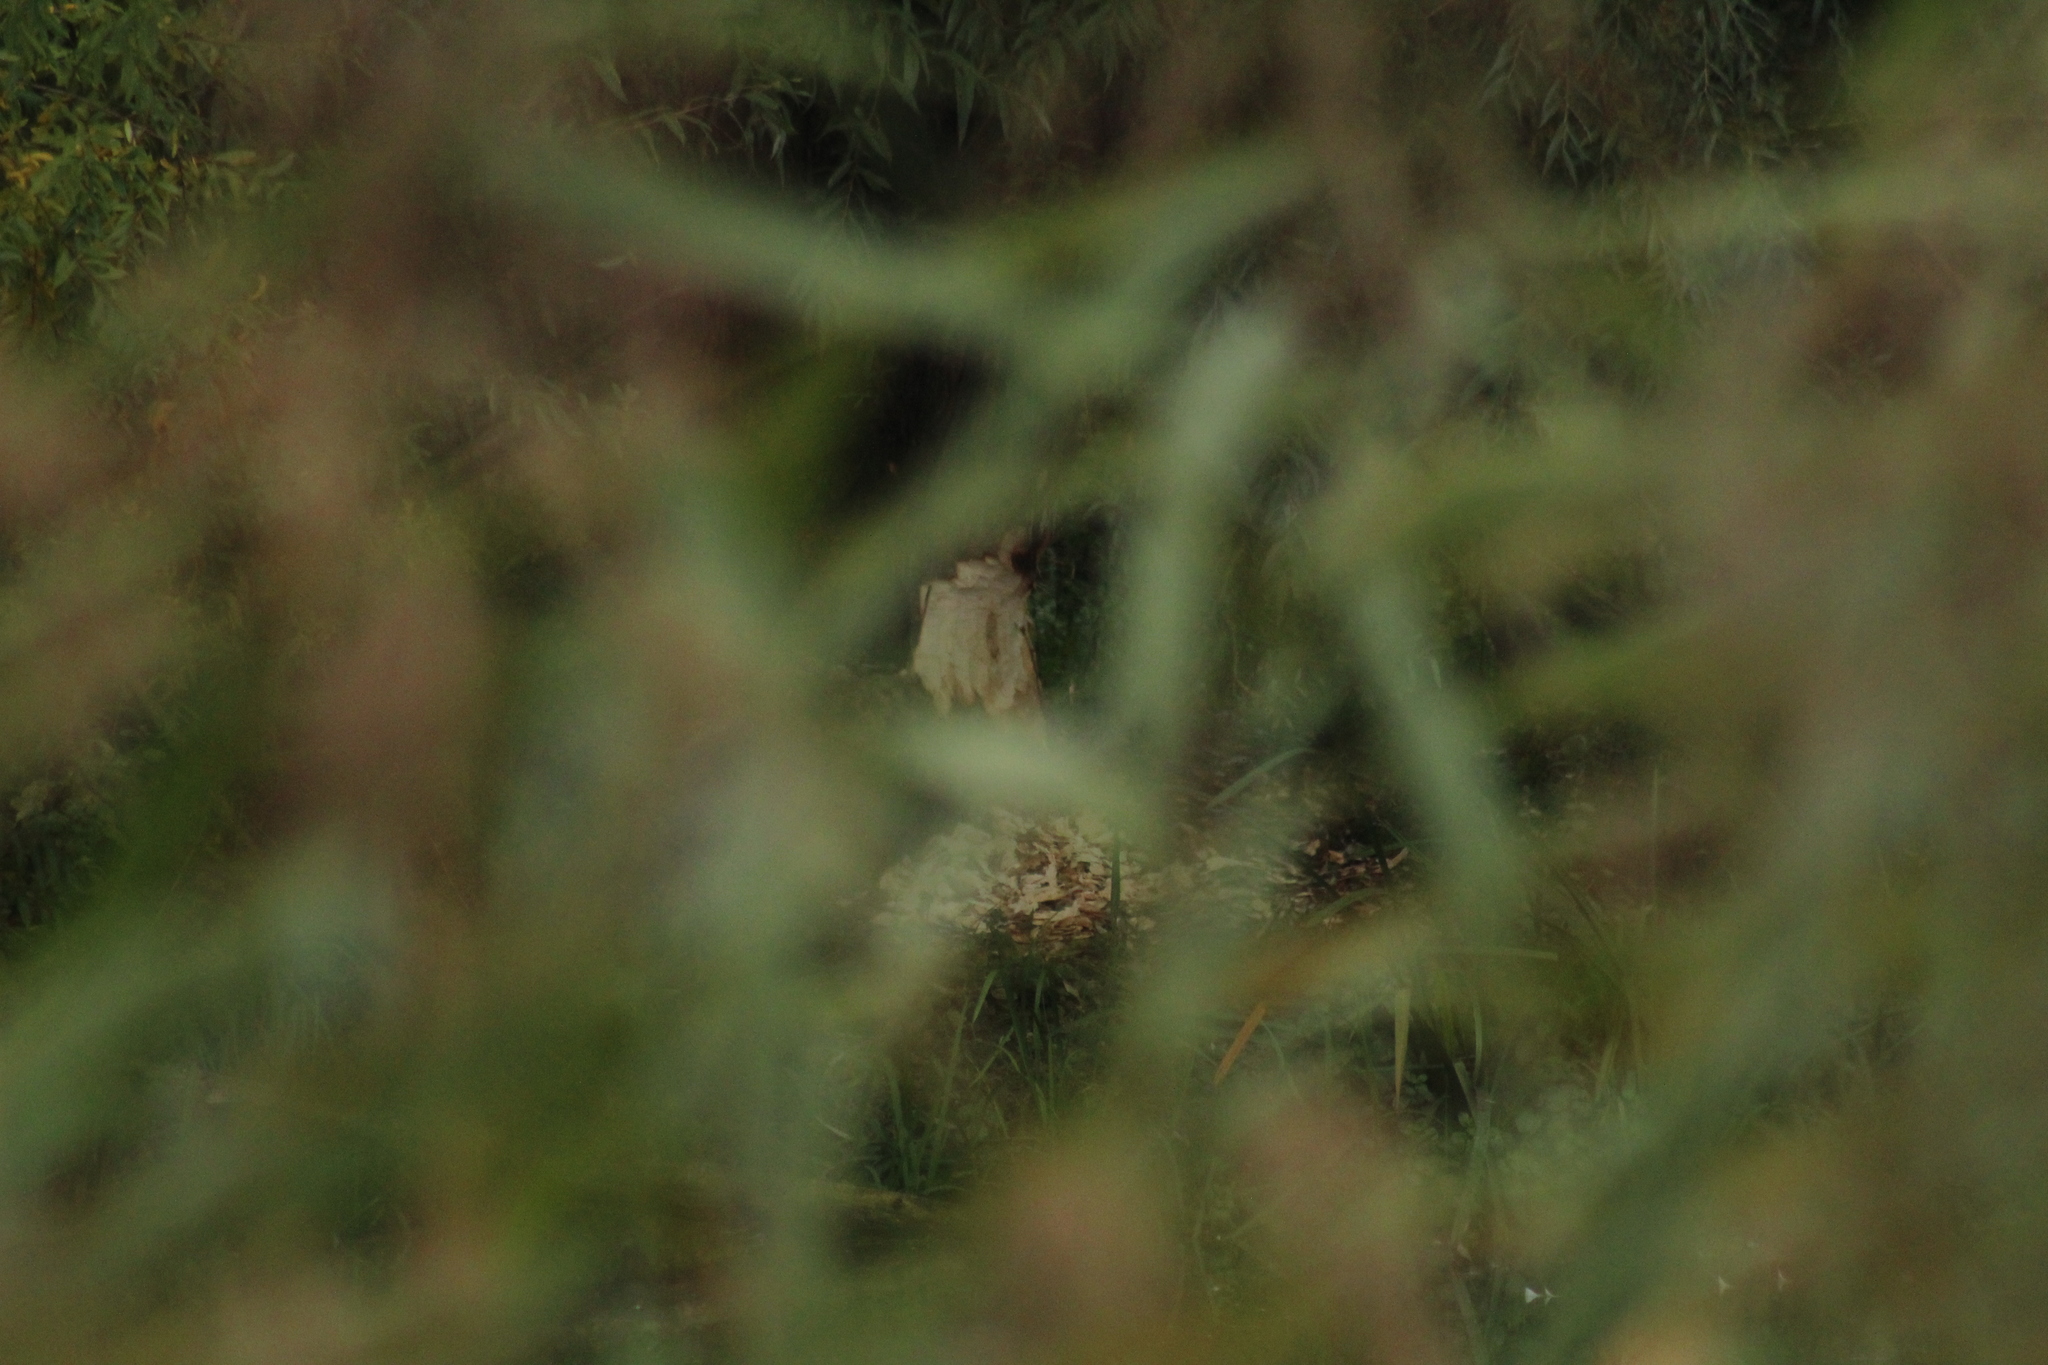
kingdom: Animalia
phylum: Chordata
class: Mammalia
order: Rodentia
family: Castoridae
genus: Castor
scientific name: Castor fiber
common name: Eurasian beaver
